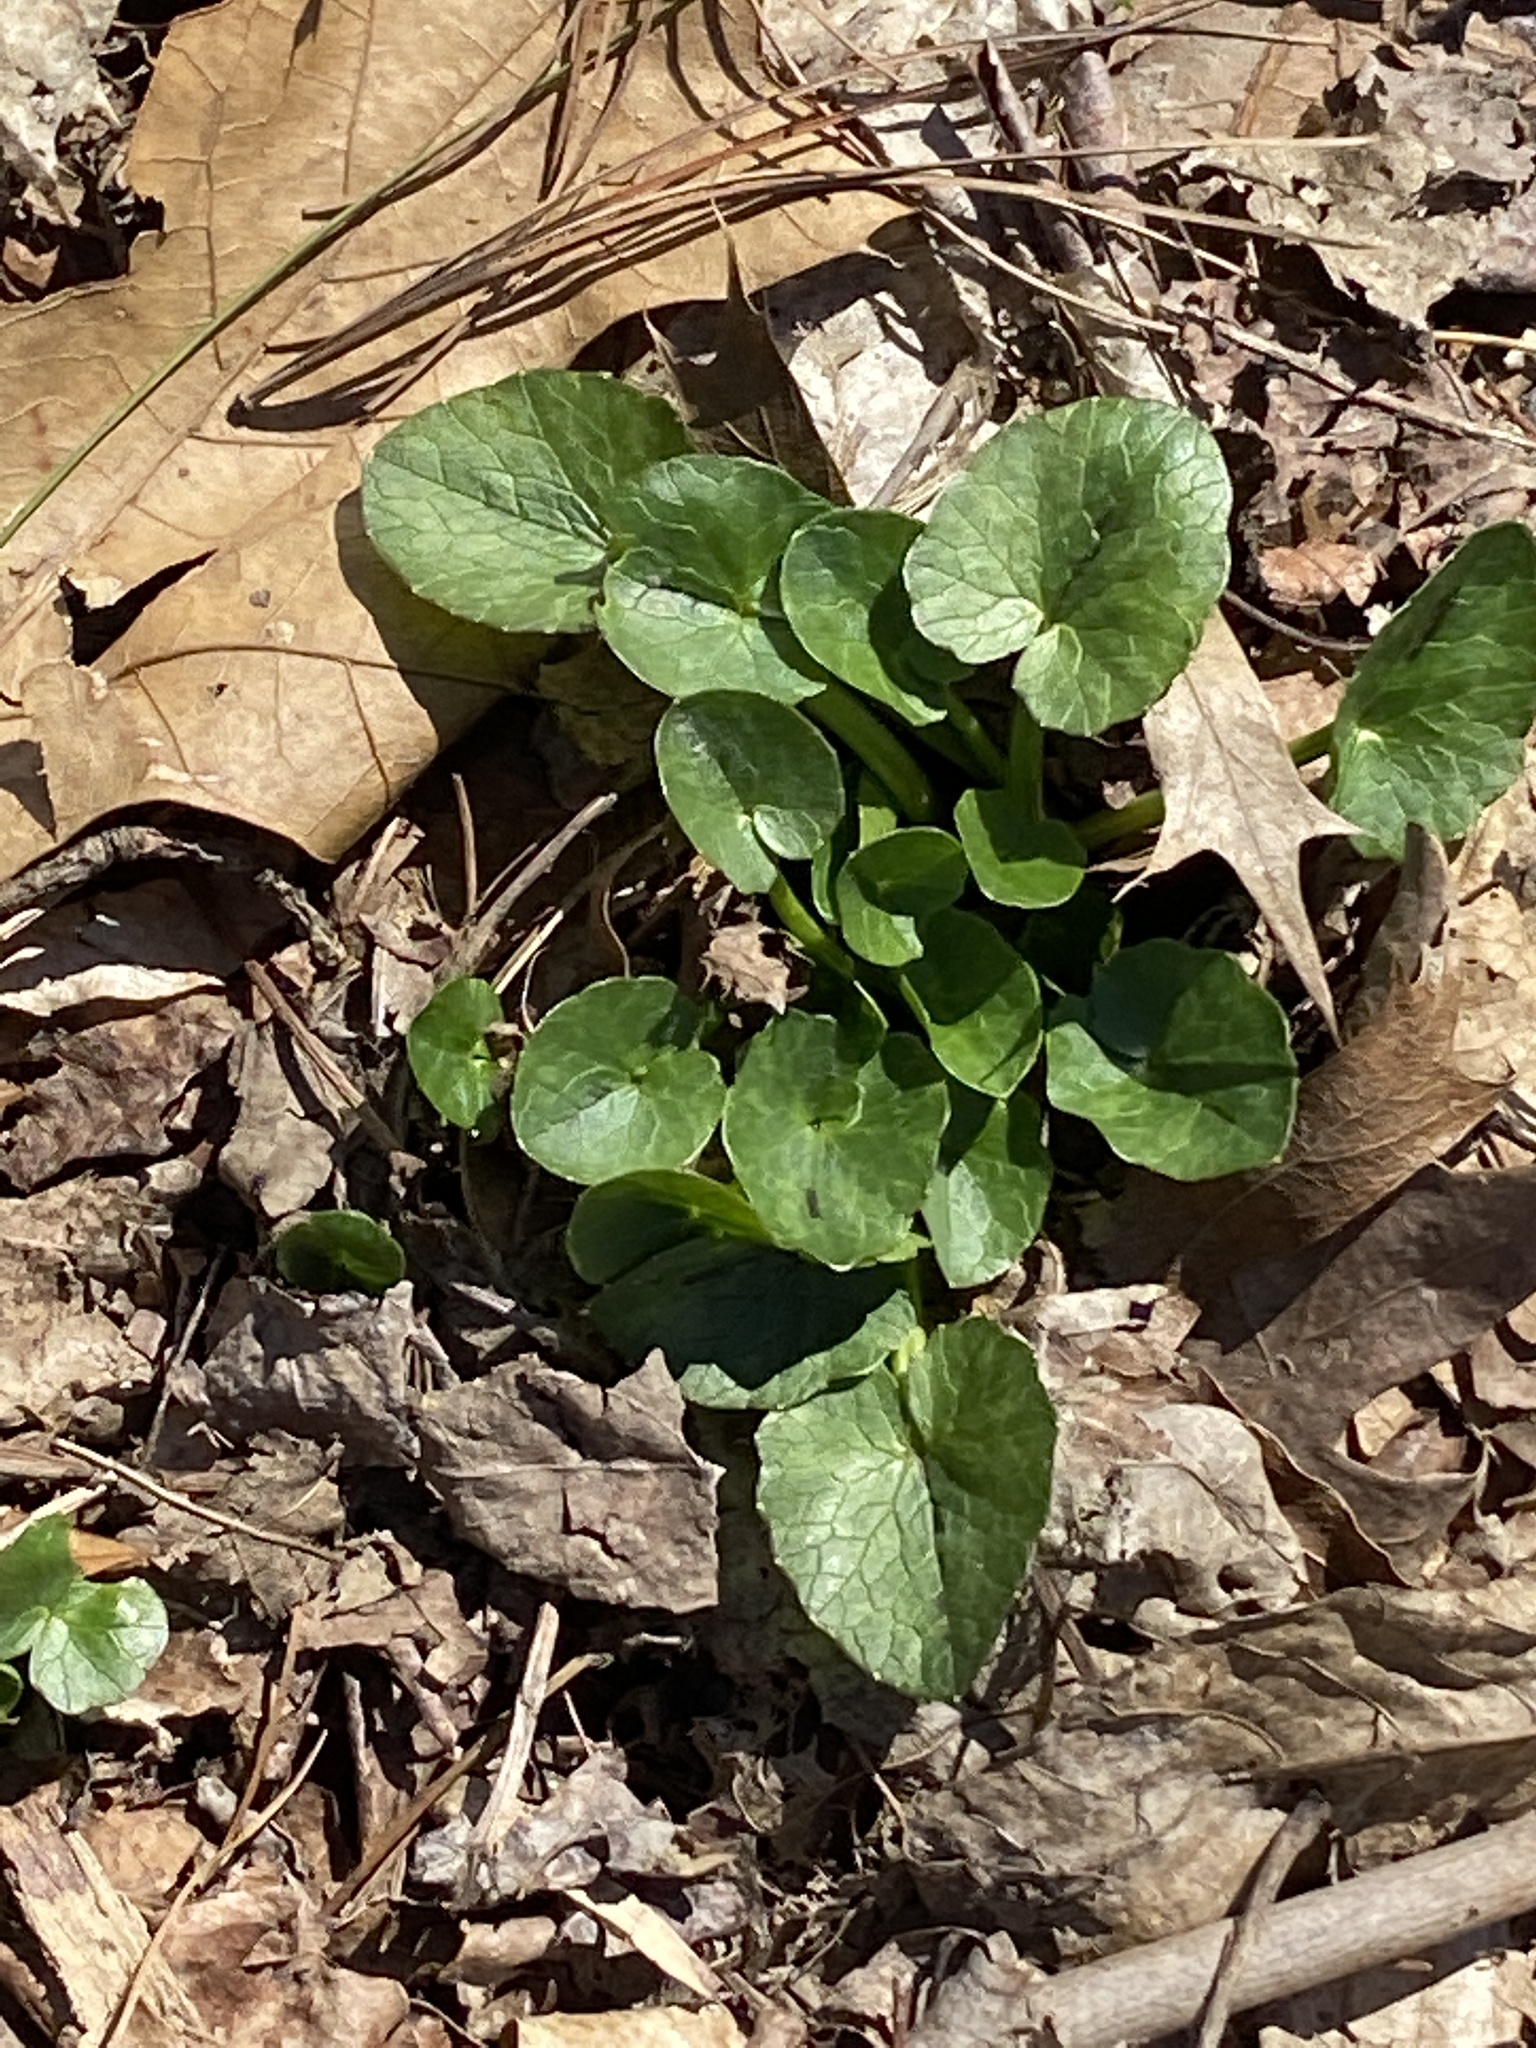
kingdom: Plantae
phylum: Tracheophyta
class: Magnoliopsida
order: Ranunculales
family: Ranunculaceae
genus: Ficaria
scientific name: Ficaria verna
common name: Lesser celandine
